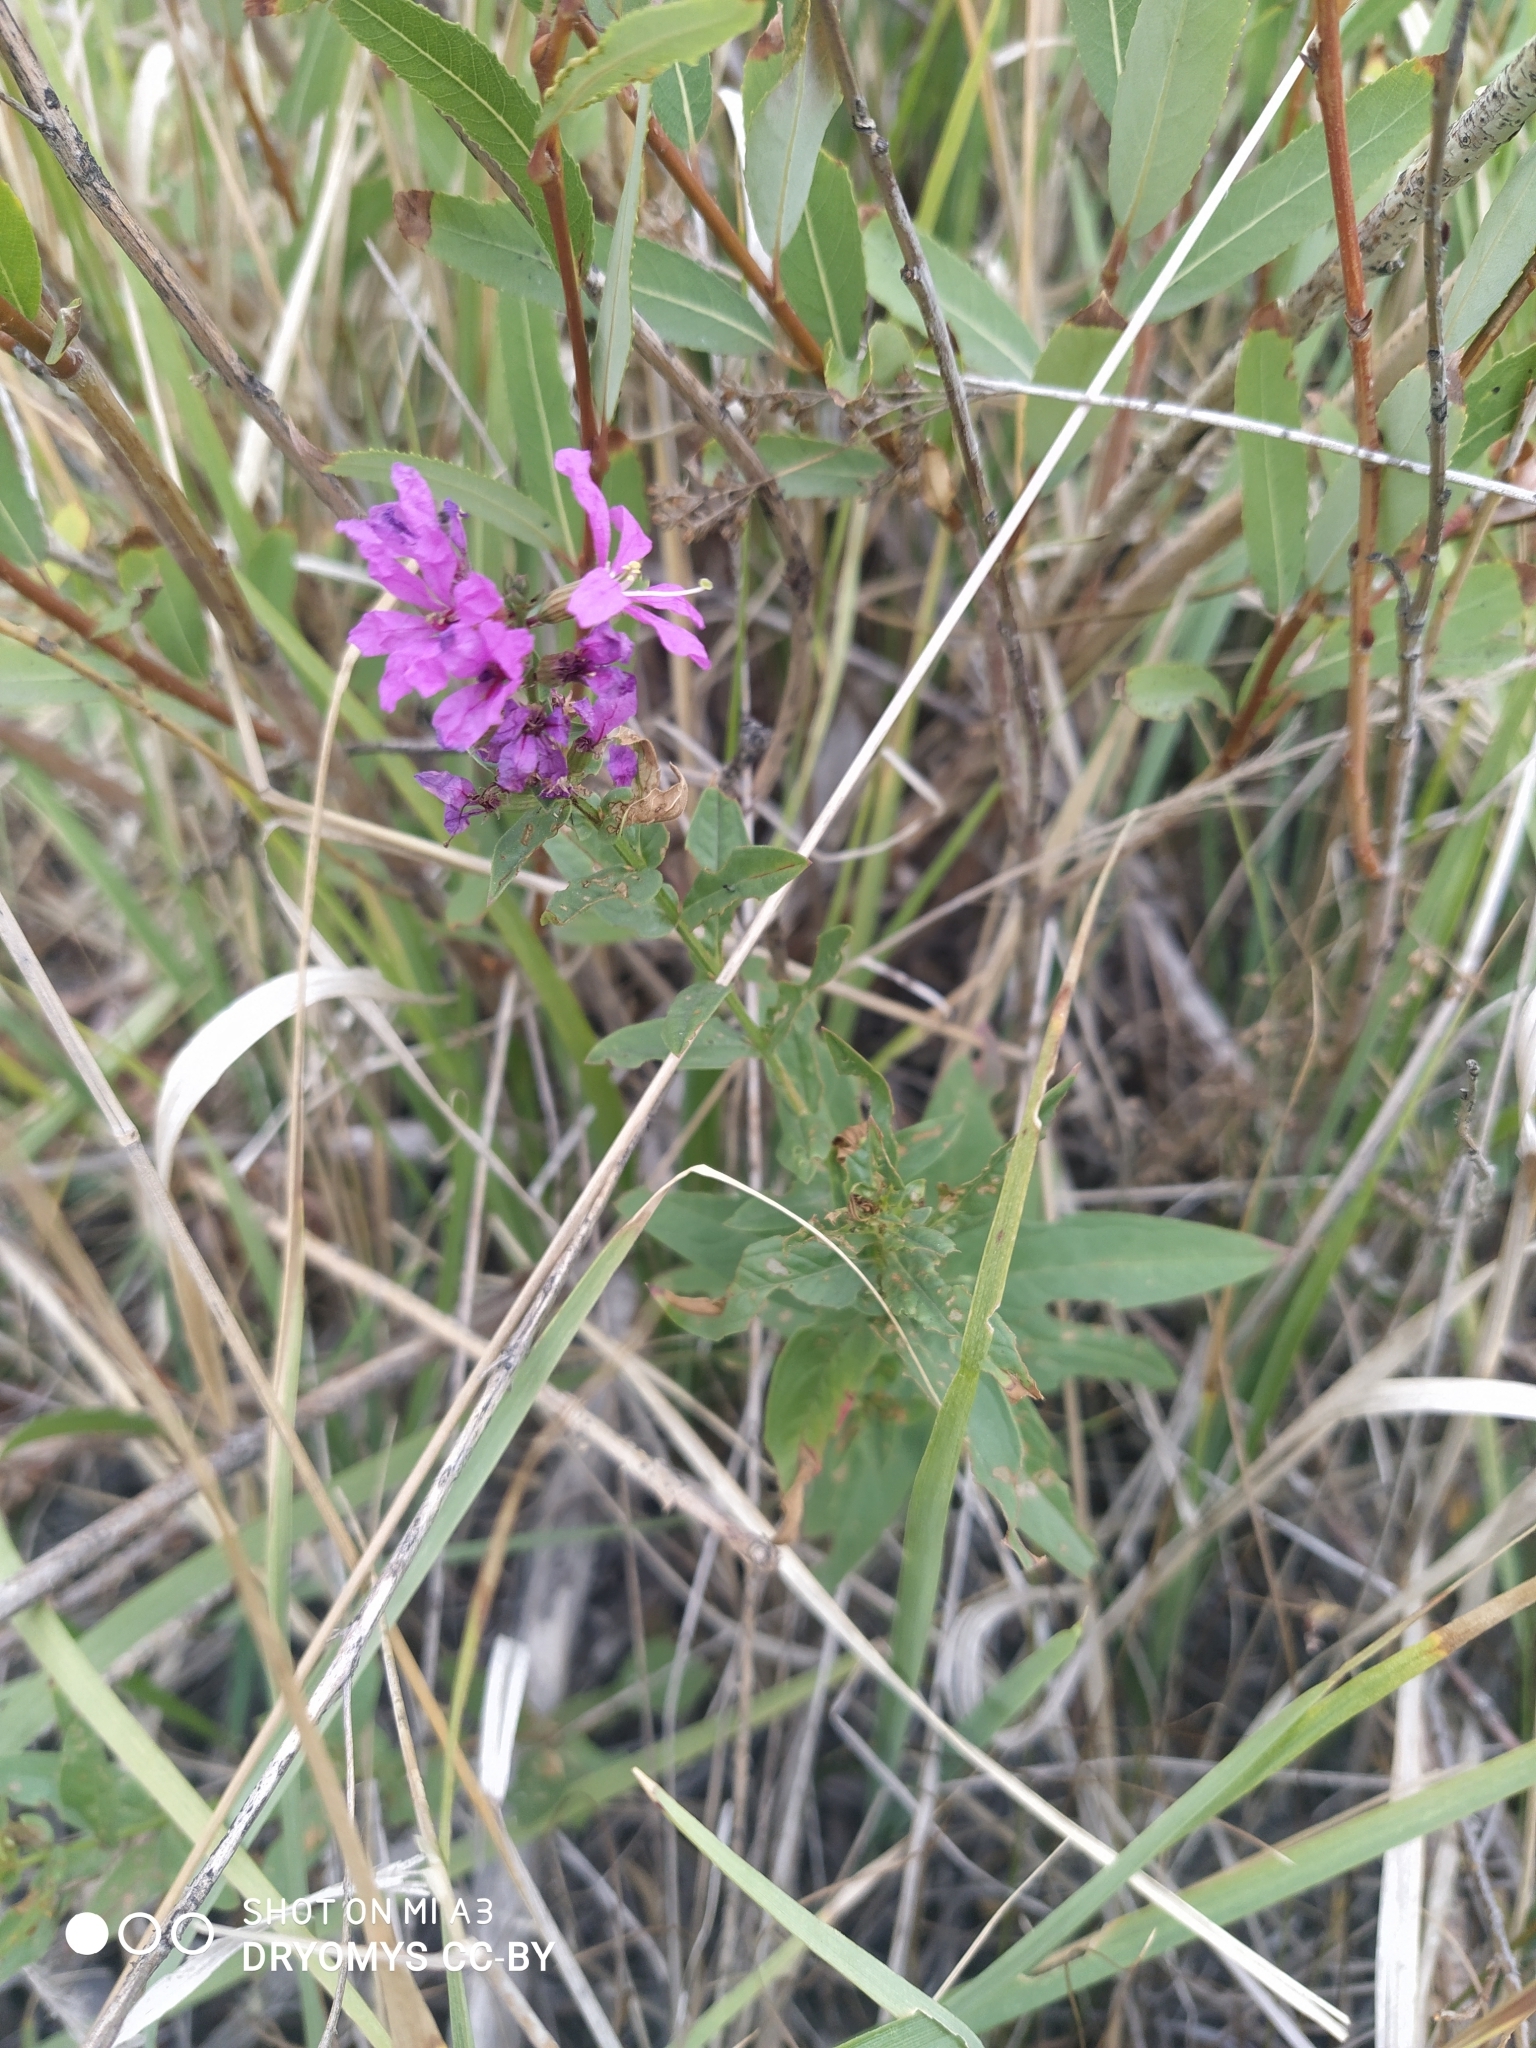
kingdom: Plantae
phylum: Tracheophyta
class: Magnoliopsida
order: Myrtales
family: Lythraceae
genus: Lythrum
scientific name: Lythrum salicaria
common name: Purple loosestrife
